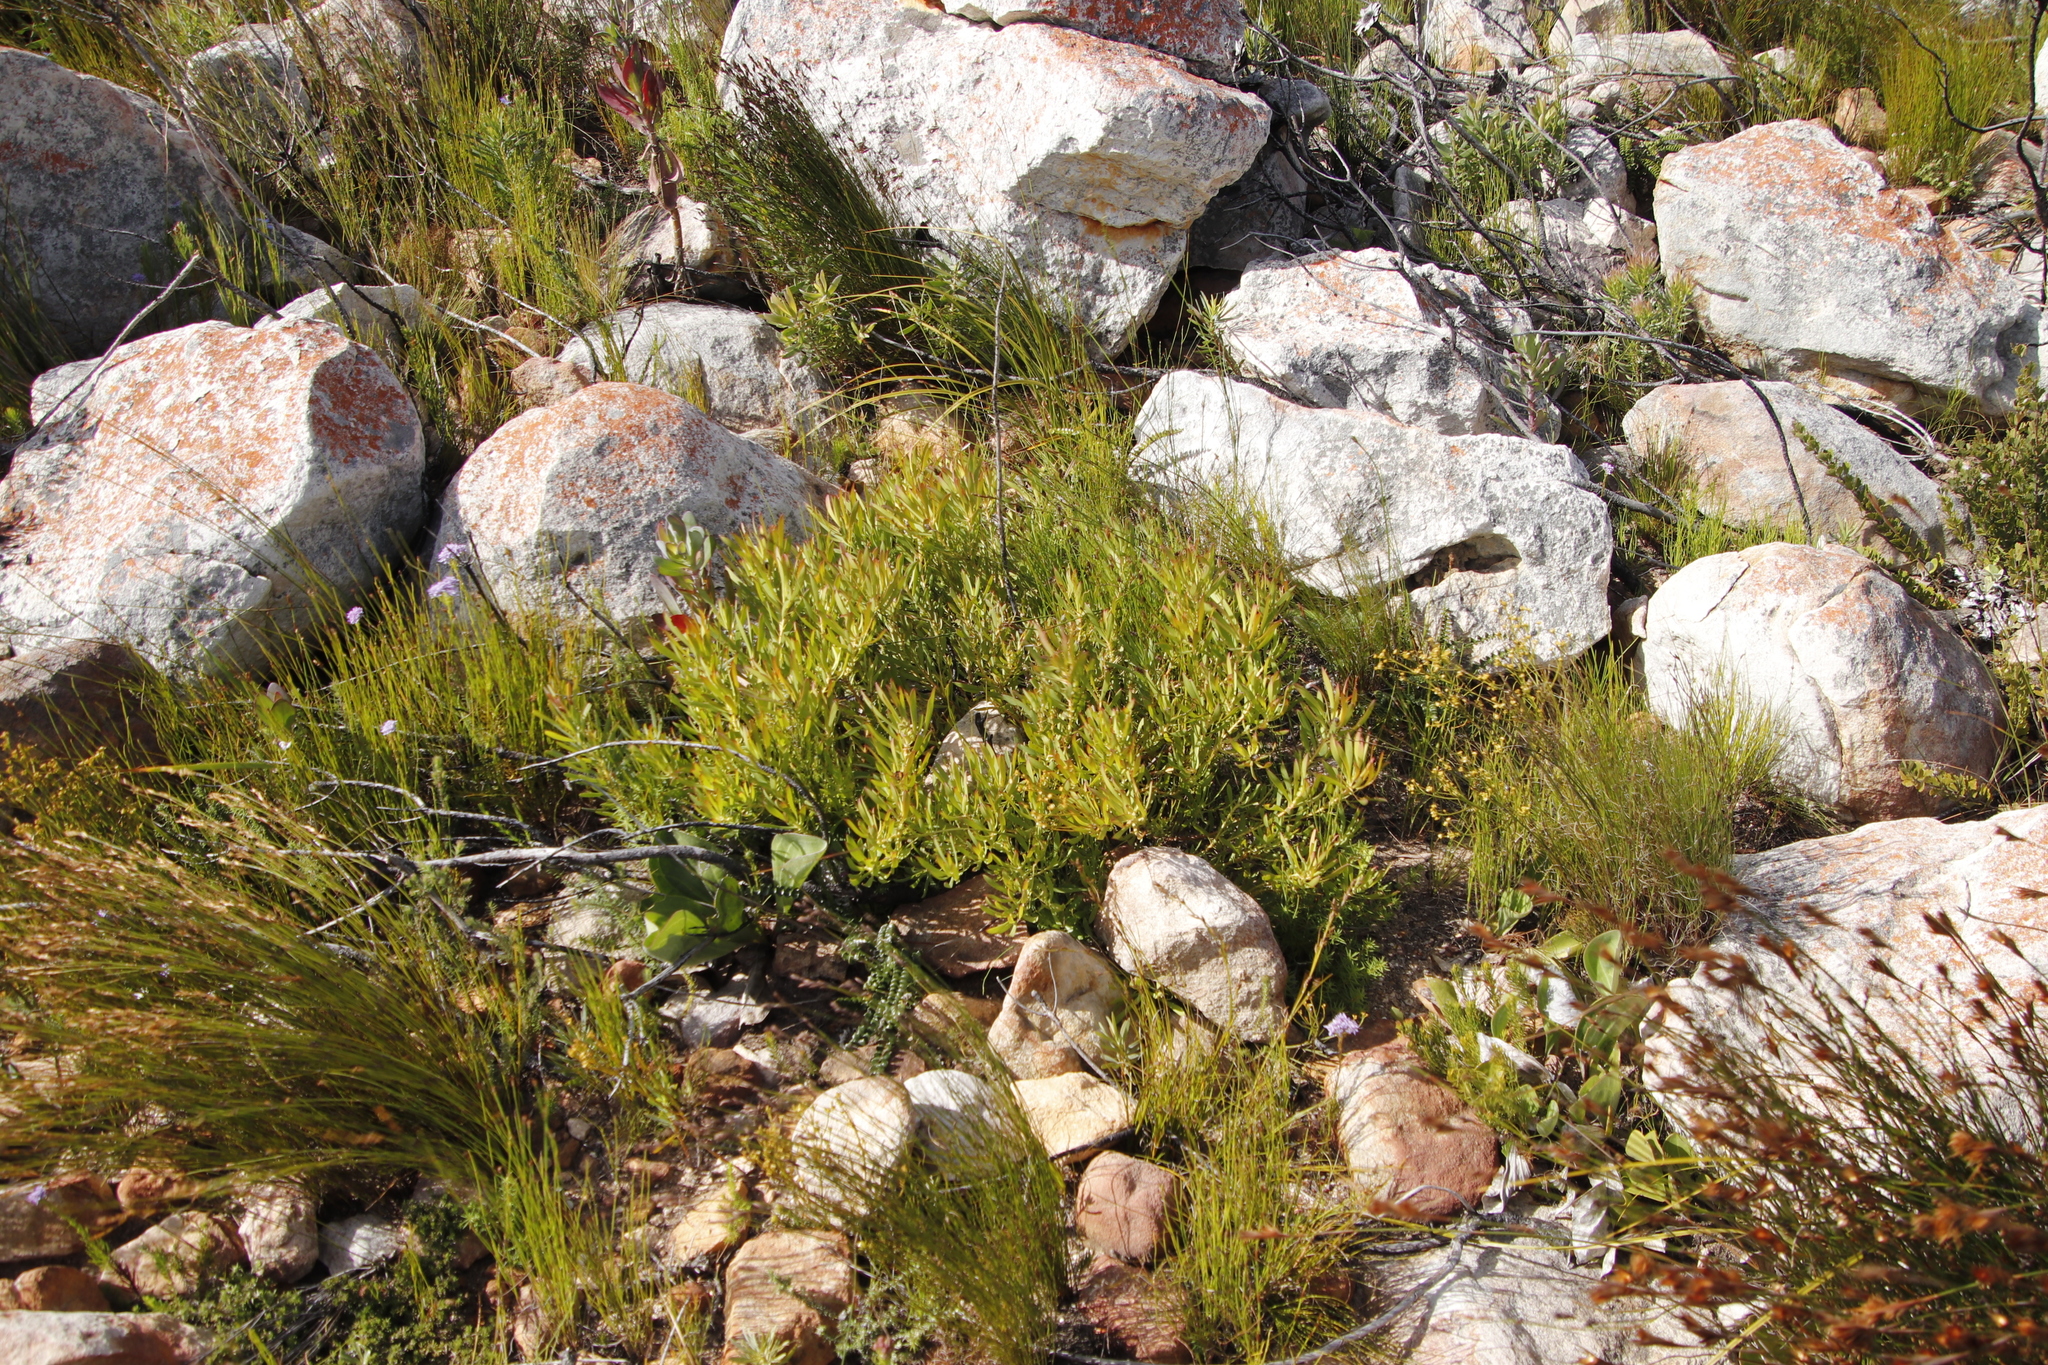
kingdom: Plantae
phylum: Tracheophyta
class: Magnoliopsida
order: Proteales
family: Proteaceae
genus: Leucadendron
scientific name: Leucadendron salignum
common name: Common sunshine conebush
